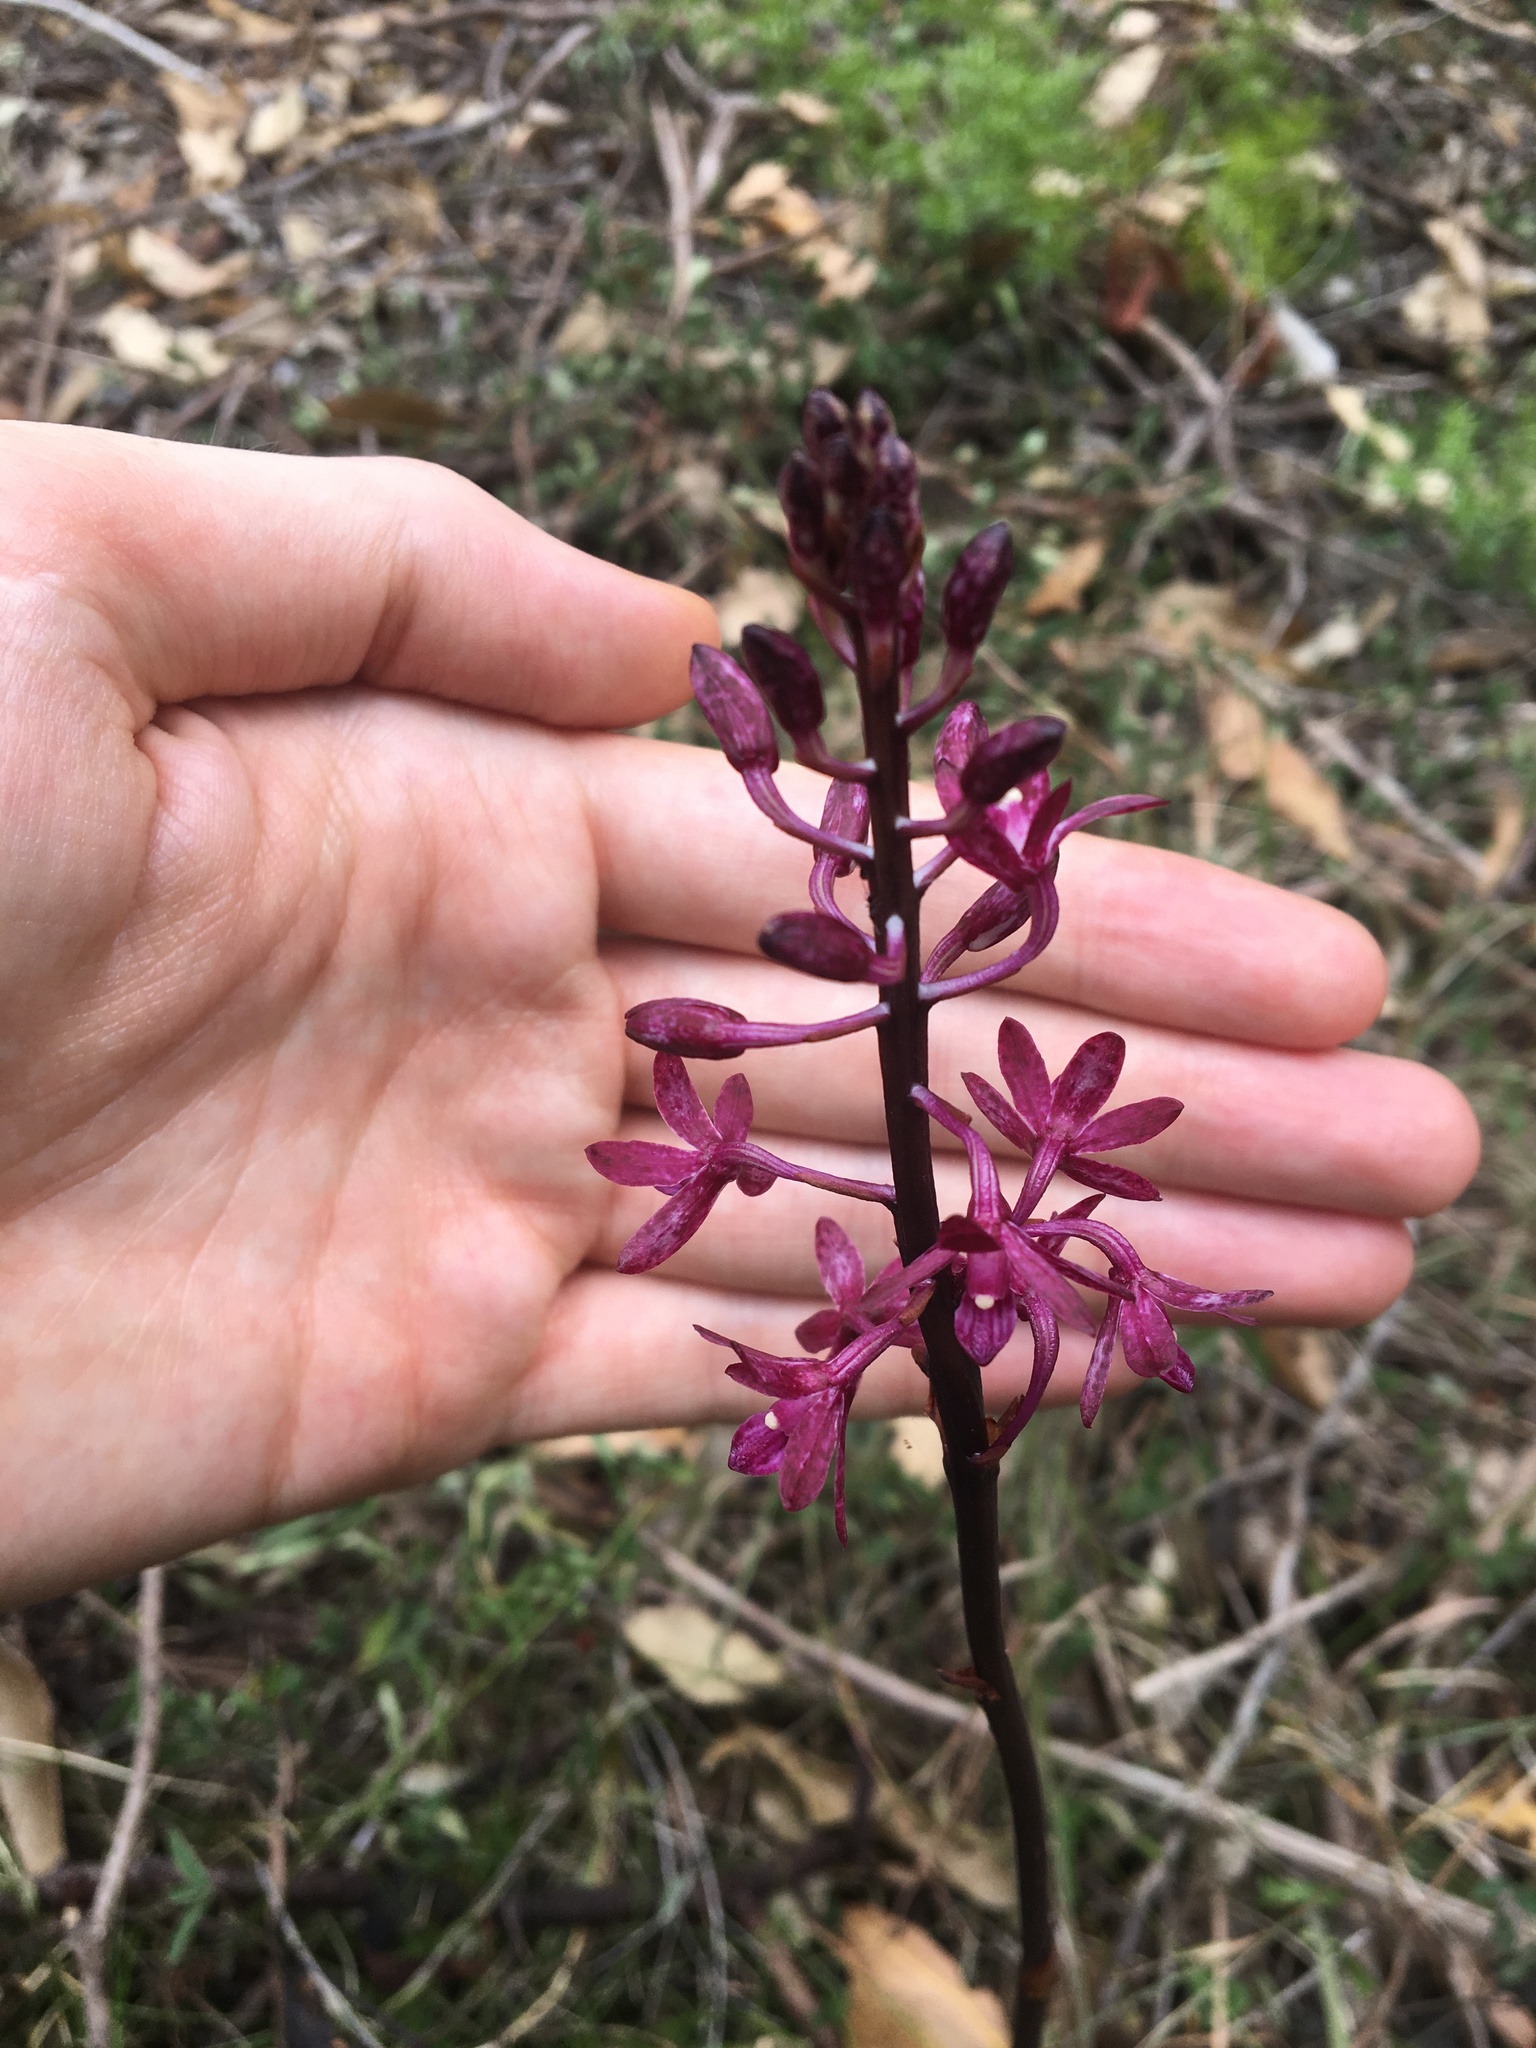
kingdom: Plantae
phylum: Tracheophyta
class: Liliopsida
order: Asparagales
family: Orchidaceae
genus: Dipodium
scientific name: Dipodium squamatum
